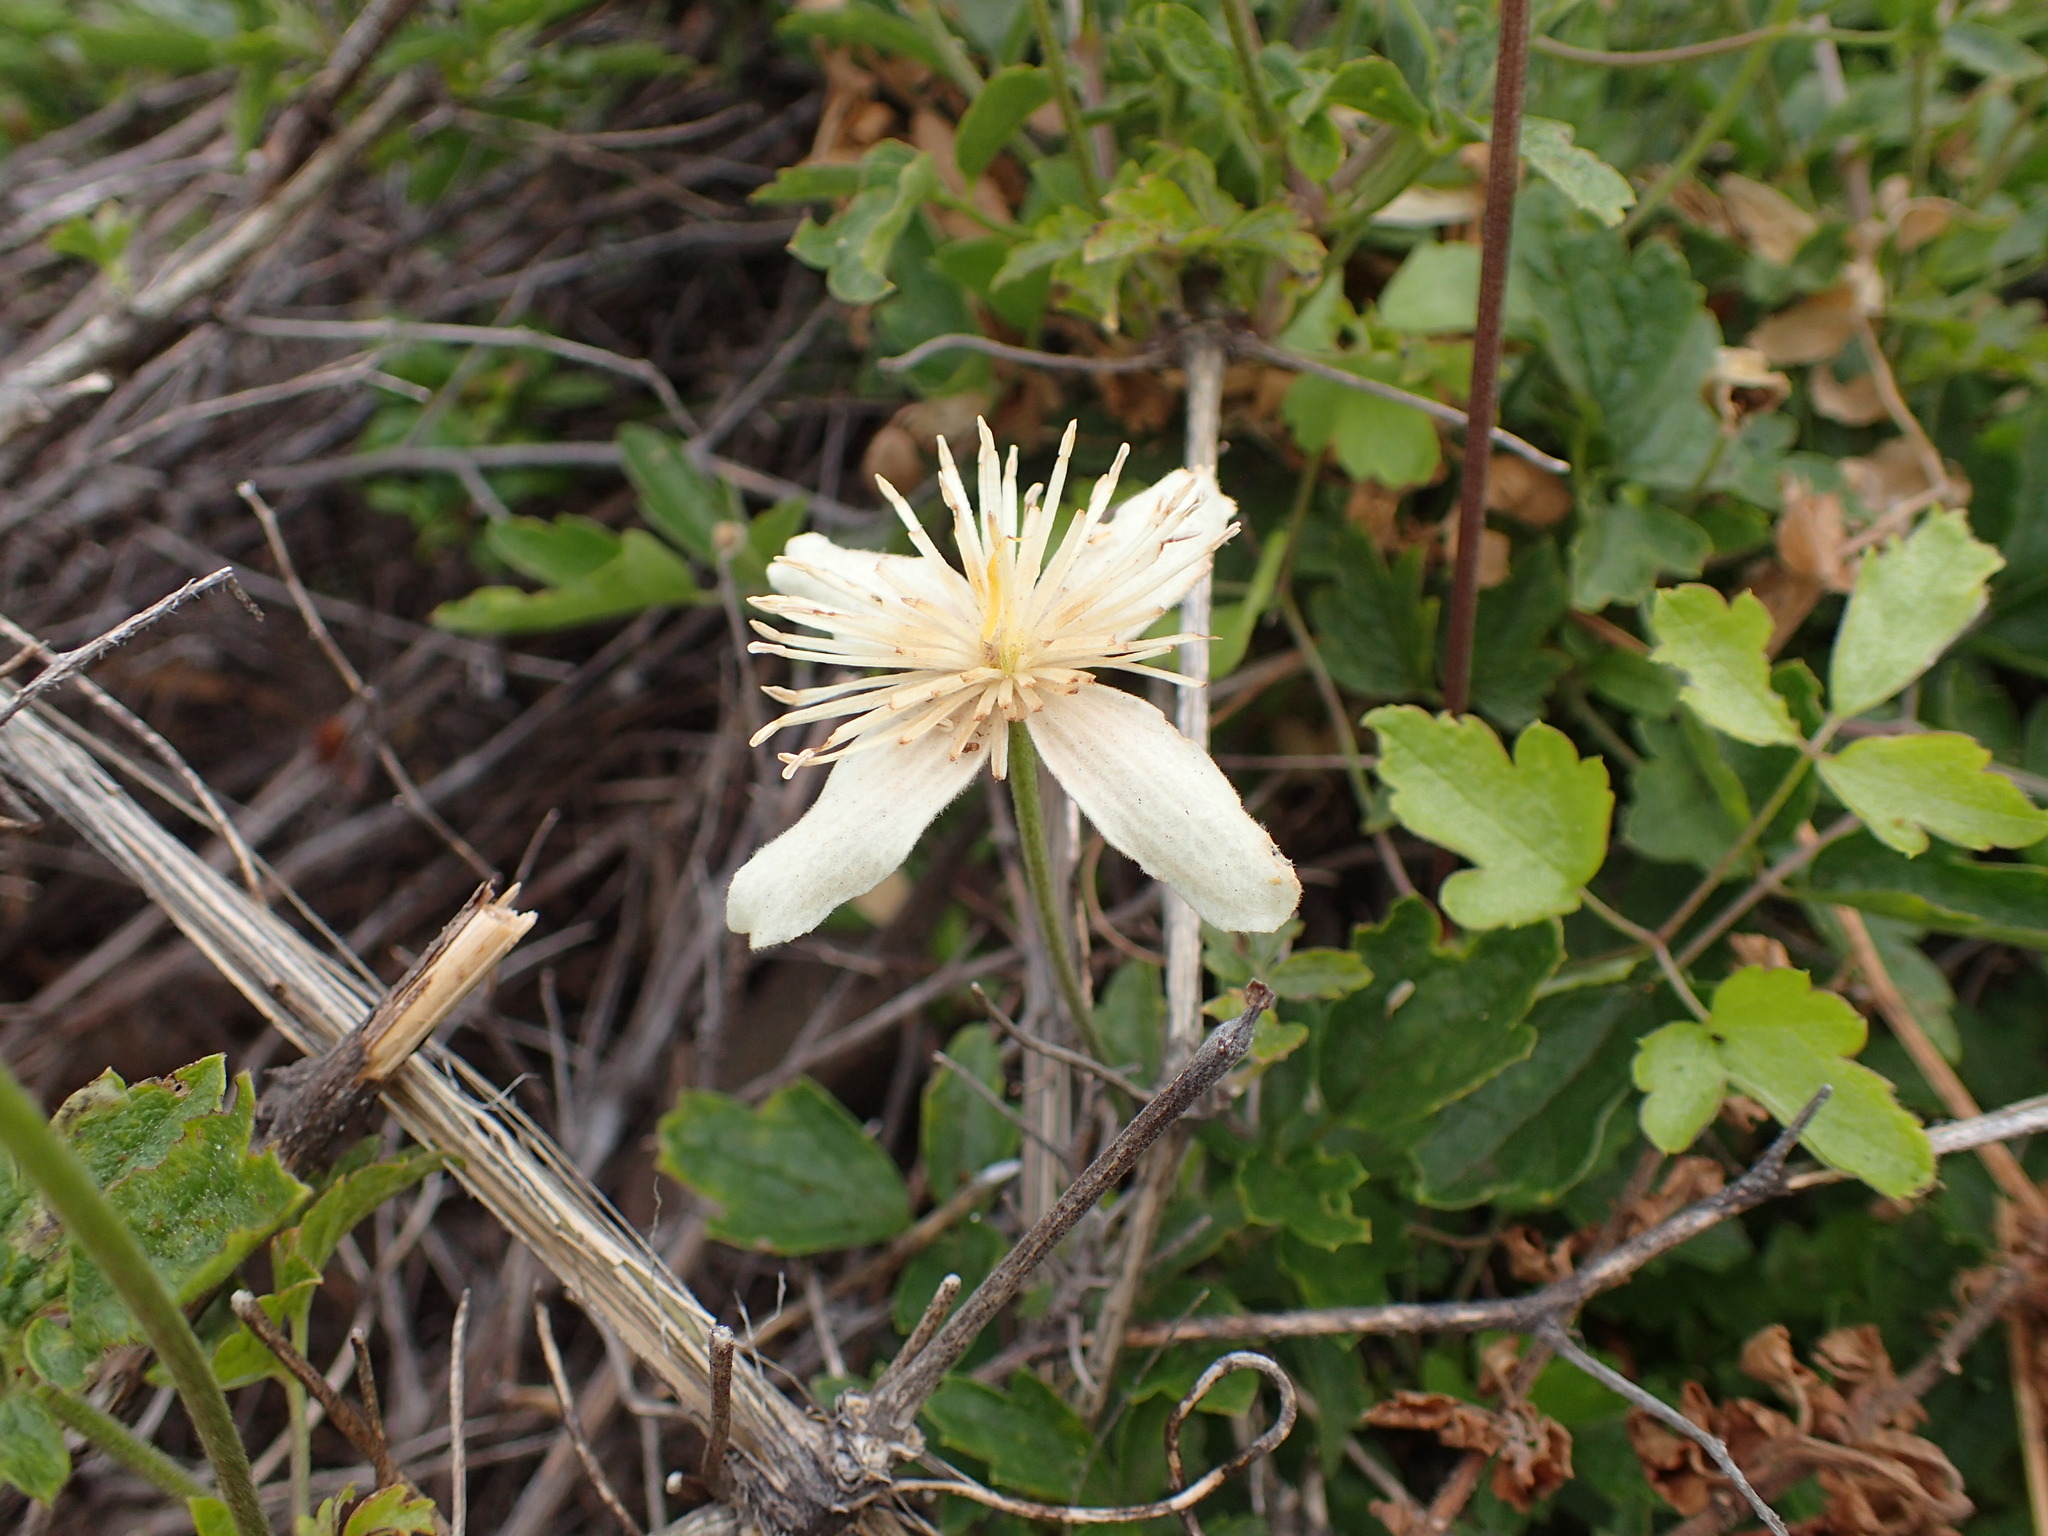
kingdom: Plantae
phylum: Tracheophyta
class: Magnoliopsida
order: Ranunculales
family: Ranunculaceae
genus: Clematis
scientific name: Clematis lasiantha
